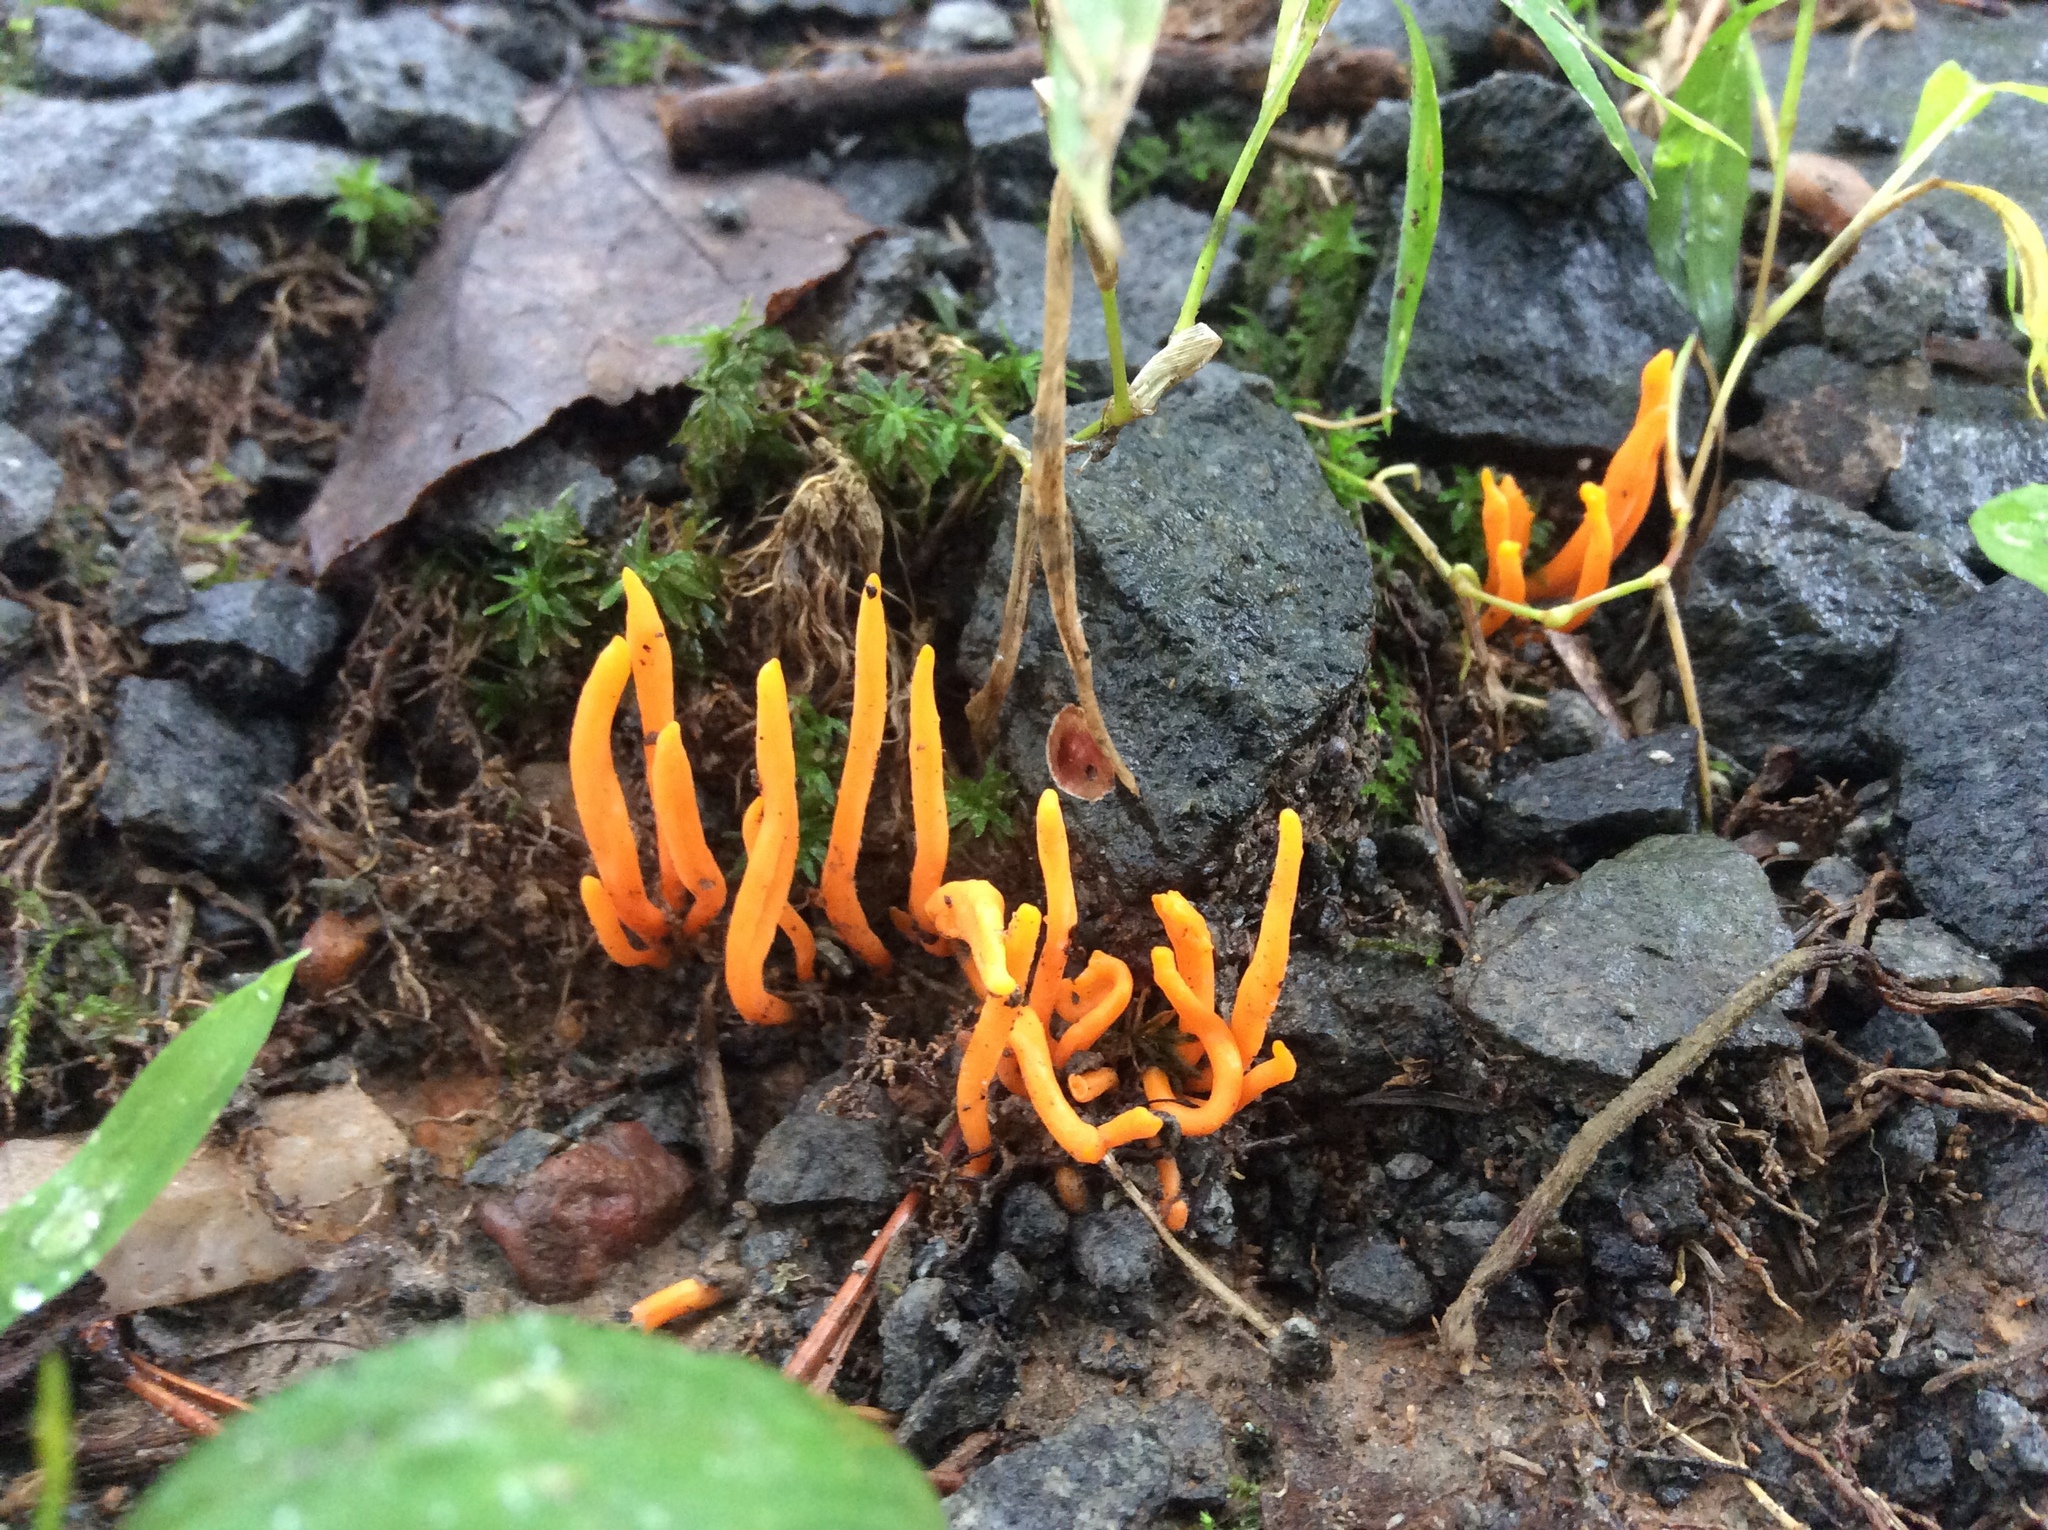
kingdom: Fungi
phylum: Basidiomycota
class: Agaricomycetes
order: Agaricales
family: Clavariaceae
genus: Clavulinopsis
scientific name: Clavulinopsis fusiformis
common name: Golden spindles
